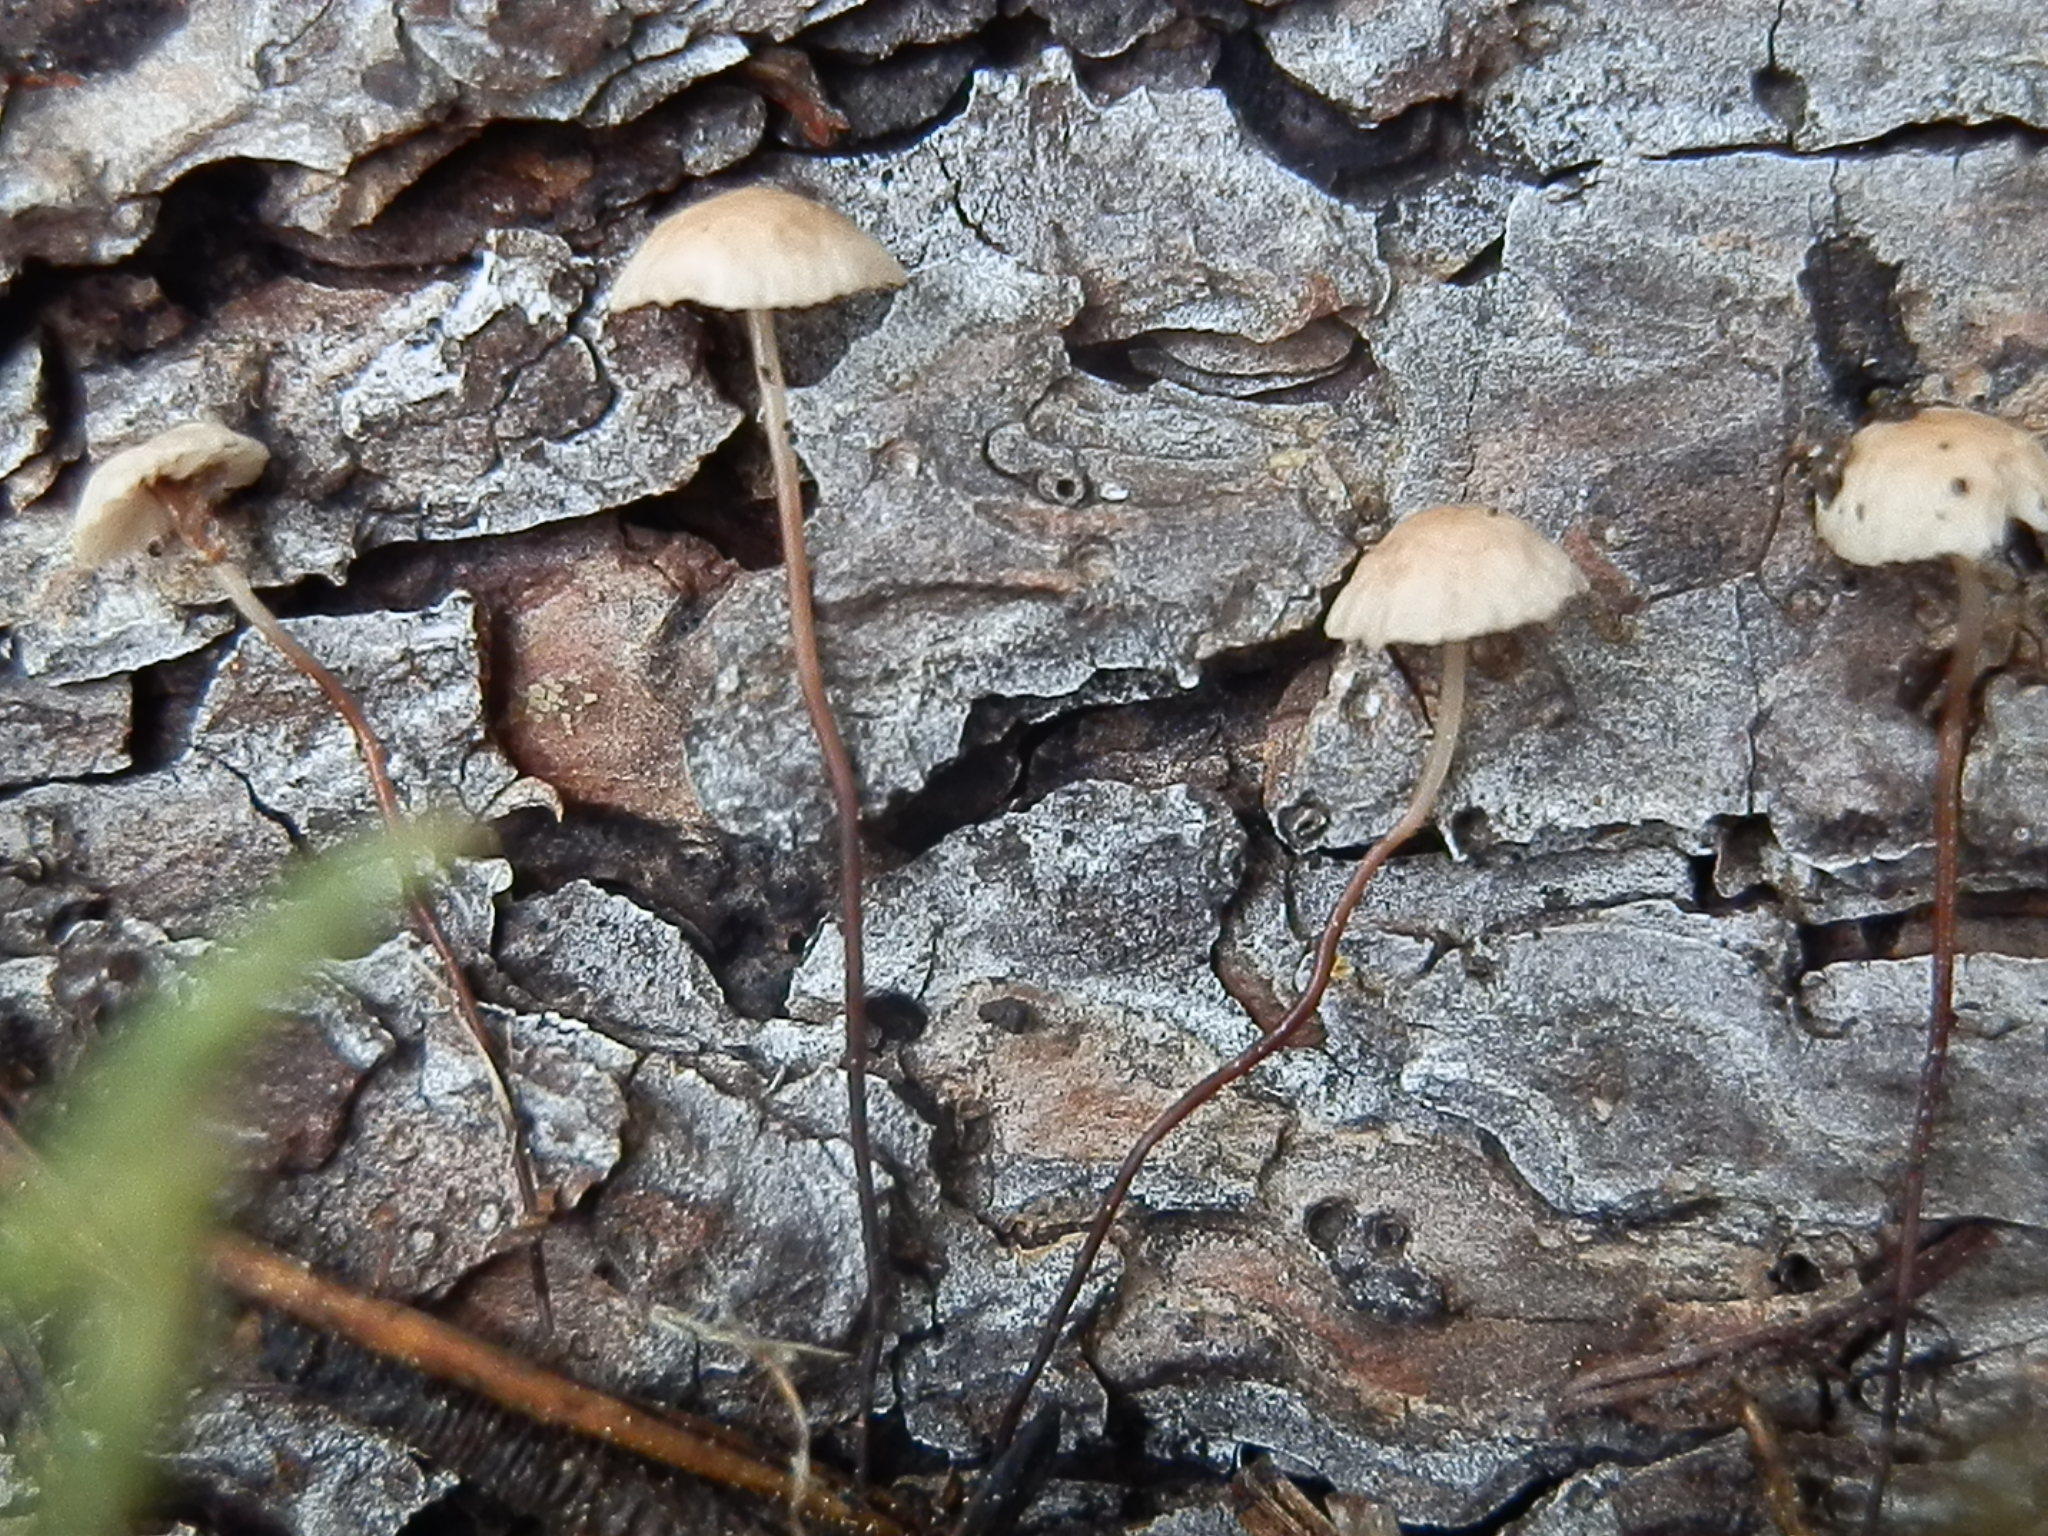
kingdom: Fungi
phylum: Basidiomycota
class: Agaricomycetes
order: Agaricales
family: Omphalotaceae
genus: Pseudomarasmius
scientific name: Pseudomarasmius pallidocephalus
